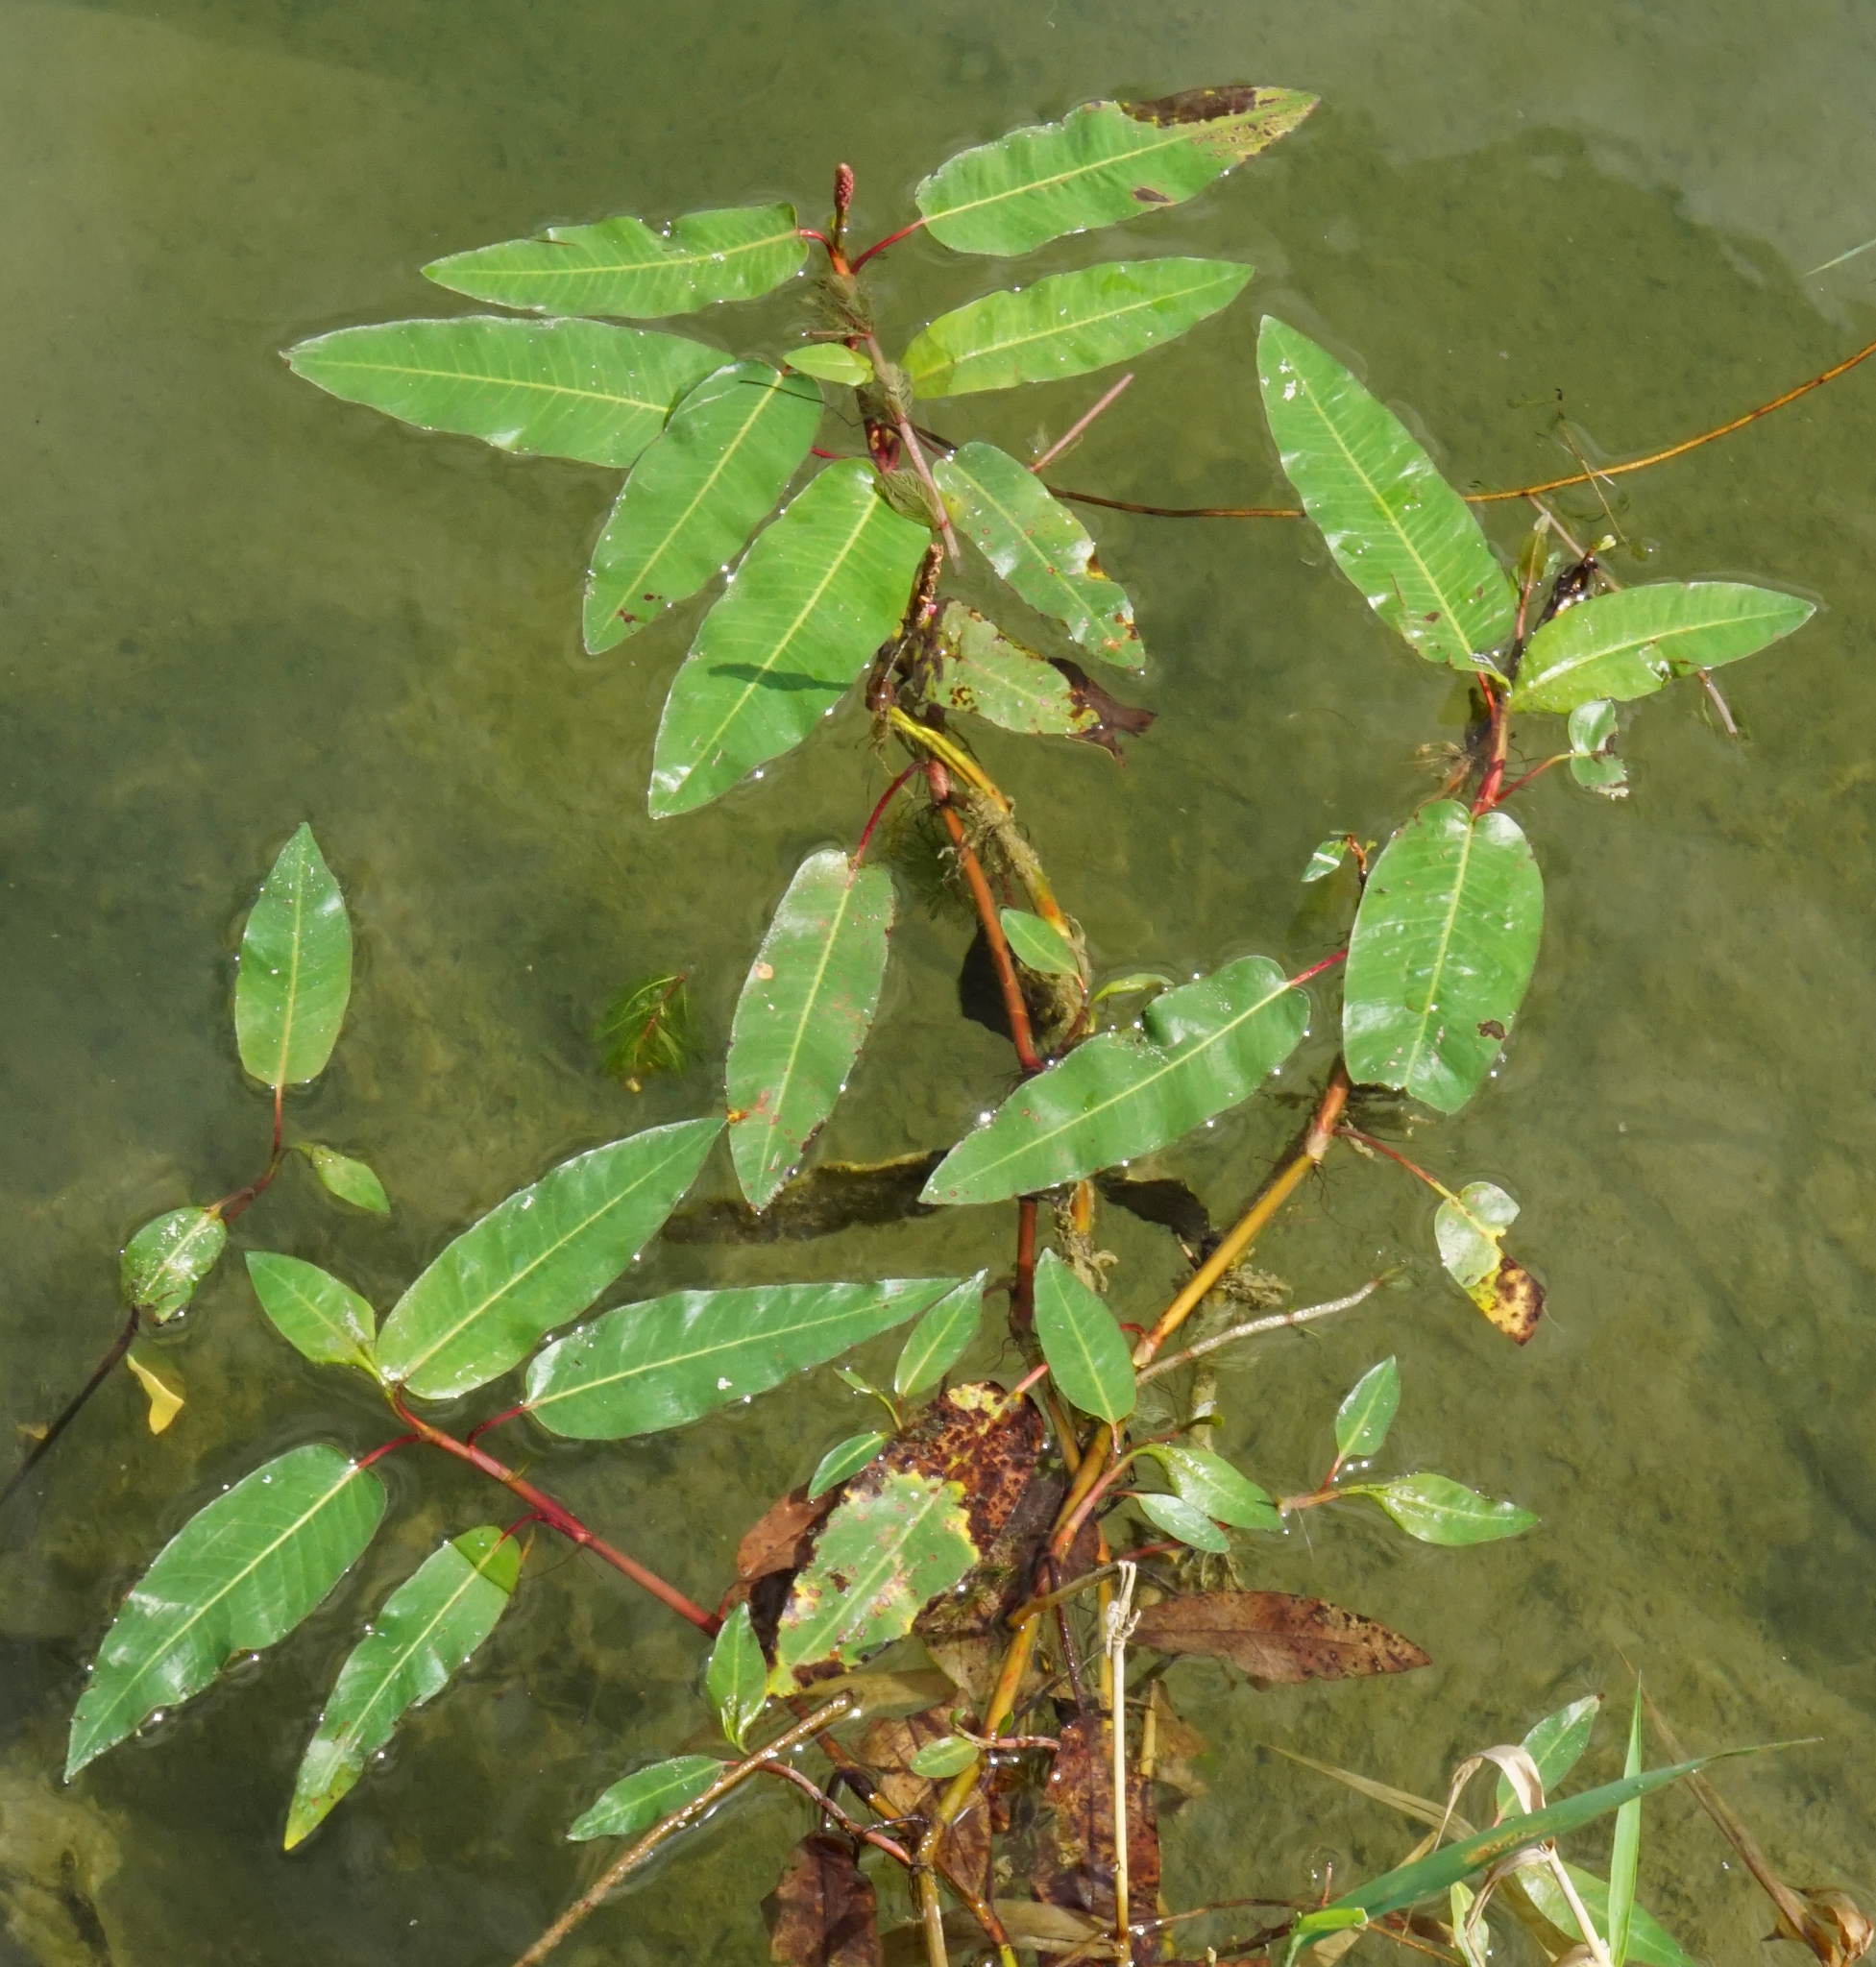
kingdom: Plantae
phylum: Tracheophyta
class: Magnoliopsida
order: Caryophyllales
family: Polygonaceae
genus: Persicaria
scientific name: Persicaria amphibia
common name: Amphibious bistort
